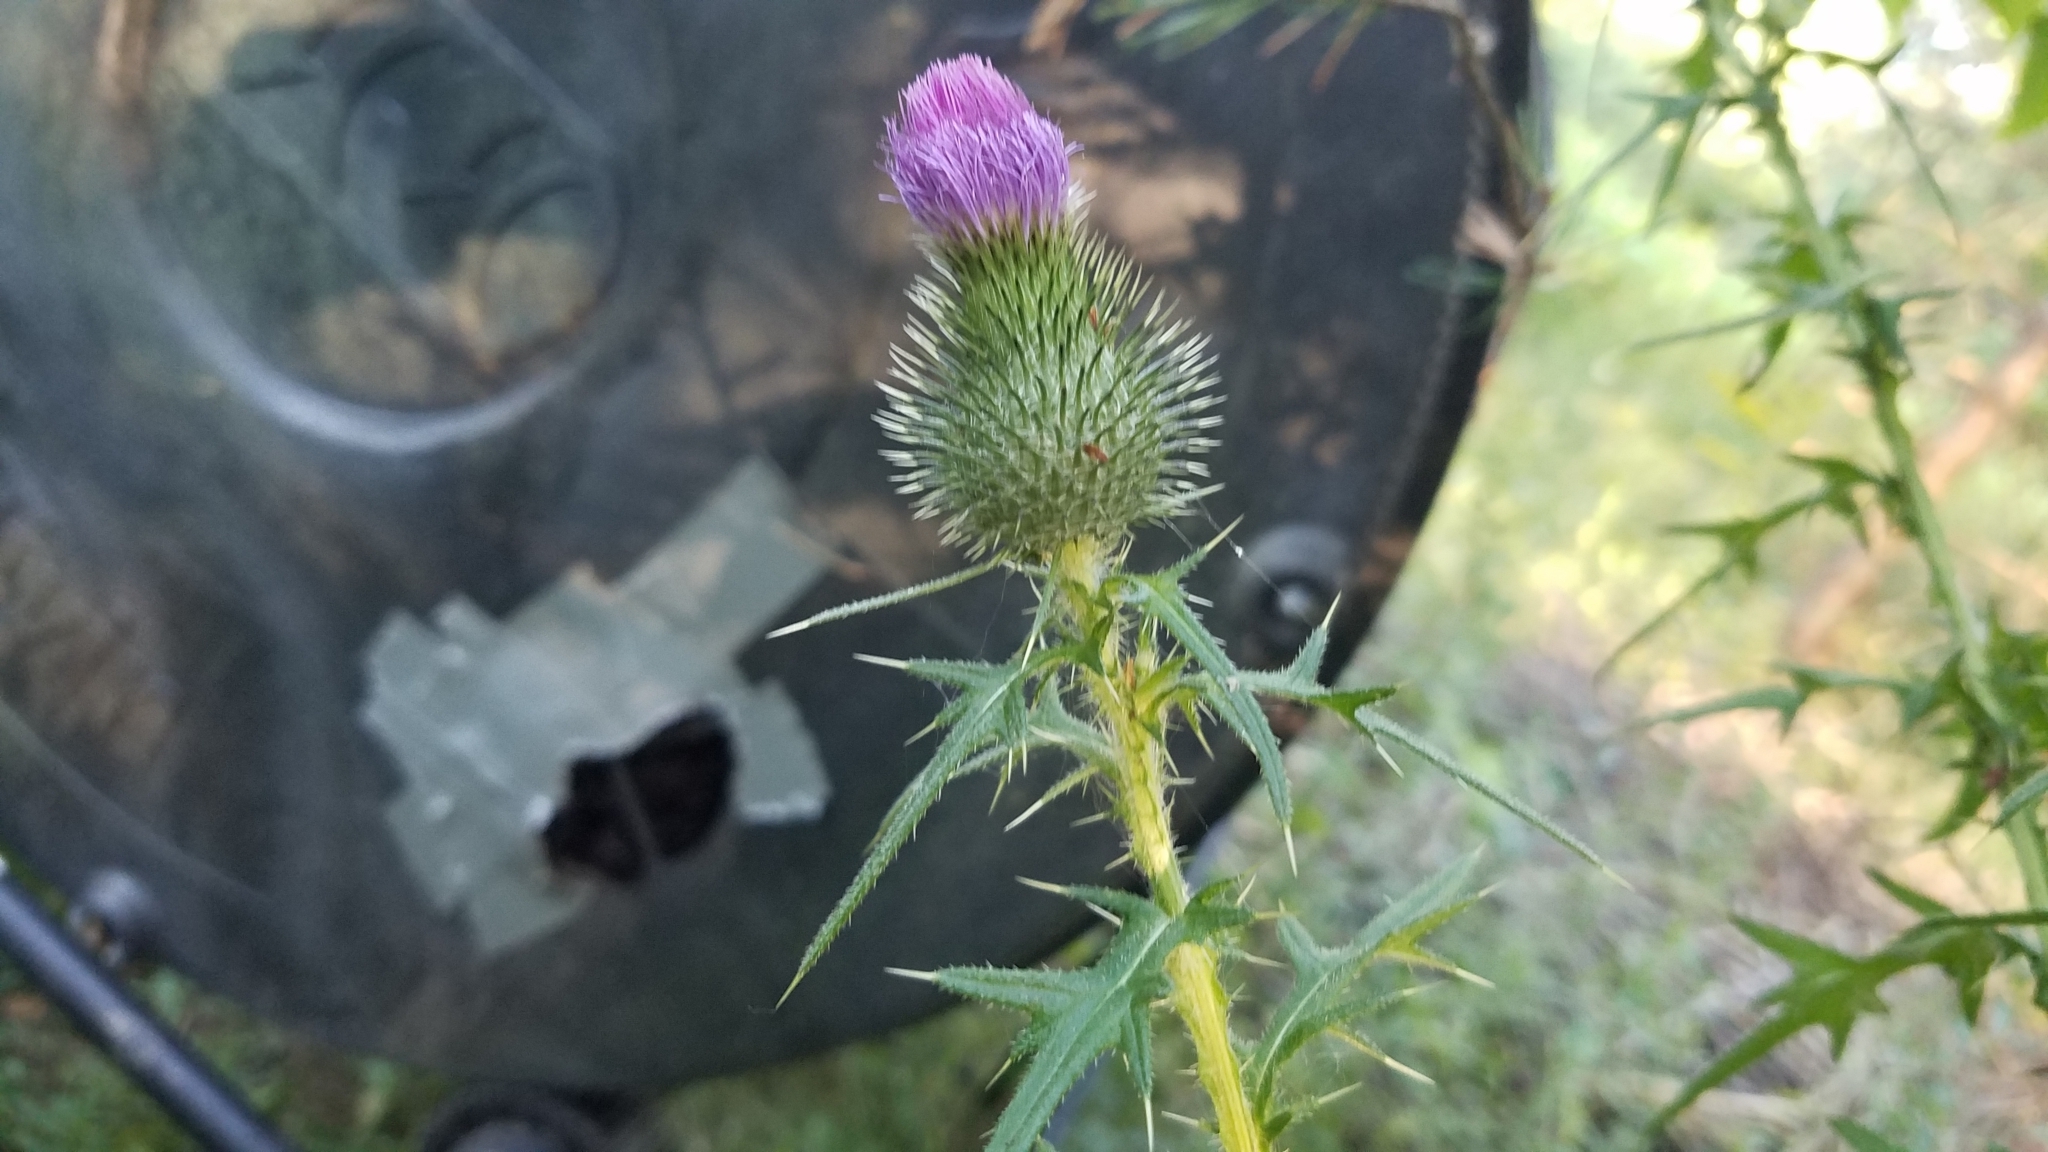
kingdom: Plantae
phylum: Tracheophyta
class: Magnoliopsida
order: Asterales
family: Asteraceae
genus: Cirsium
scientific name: Cirsium vulgare
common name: Bull thistle
